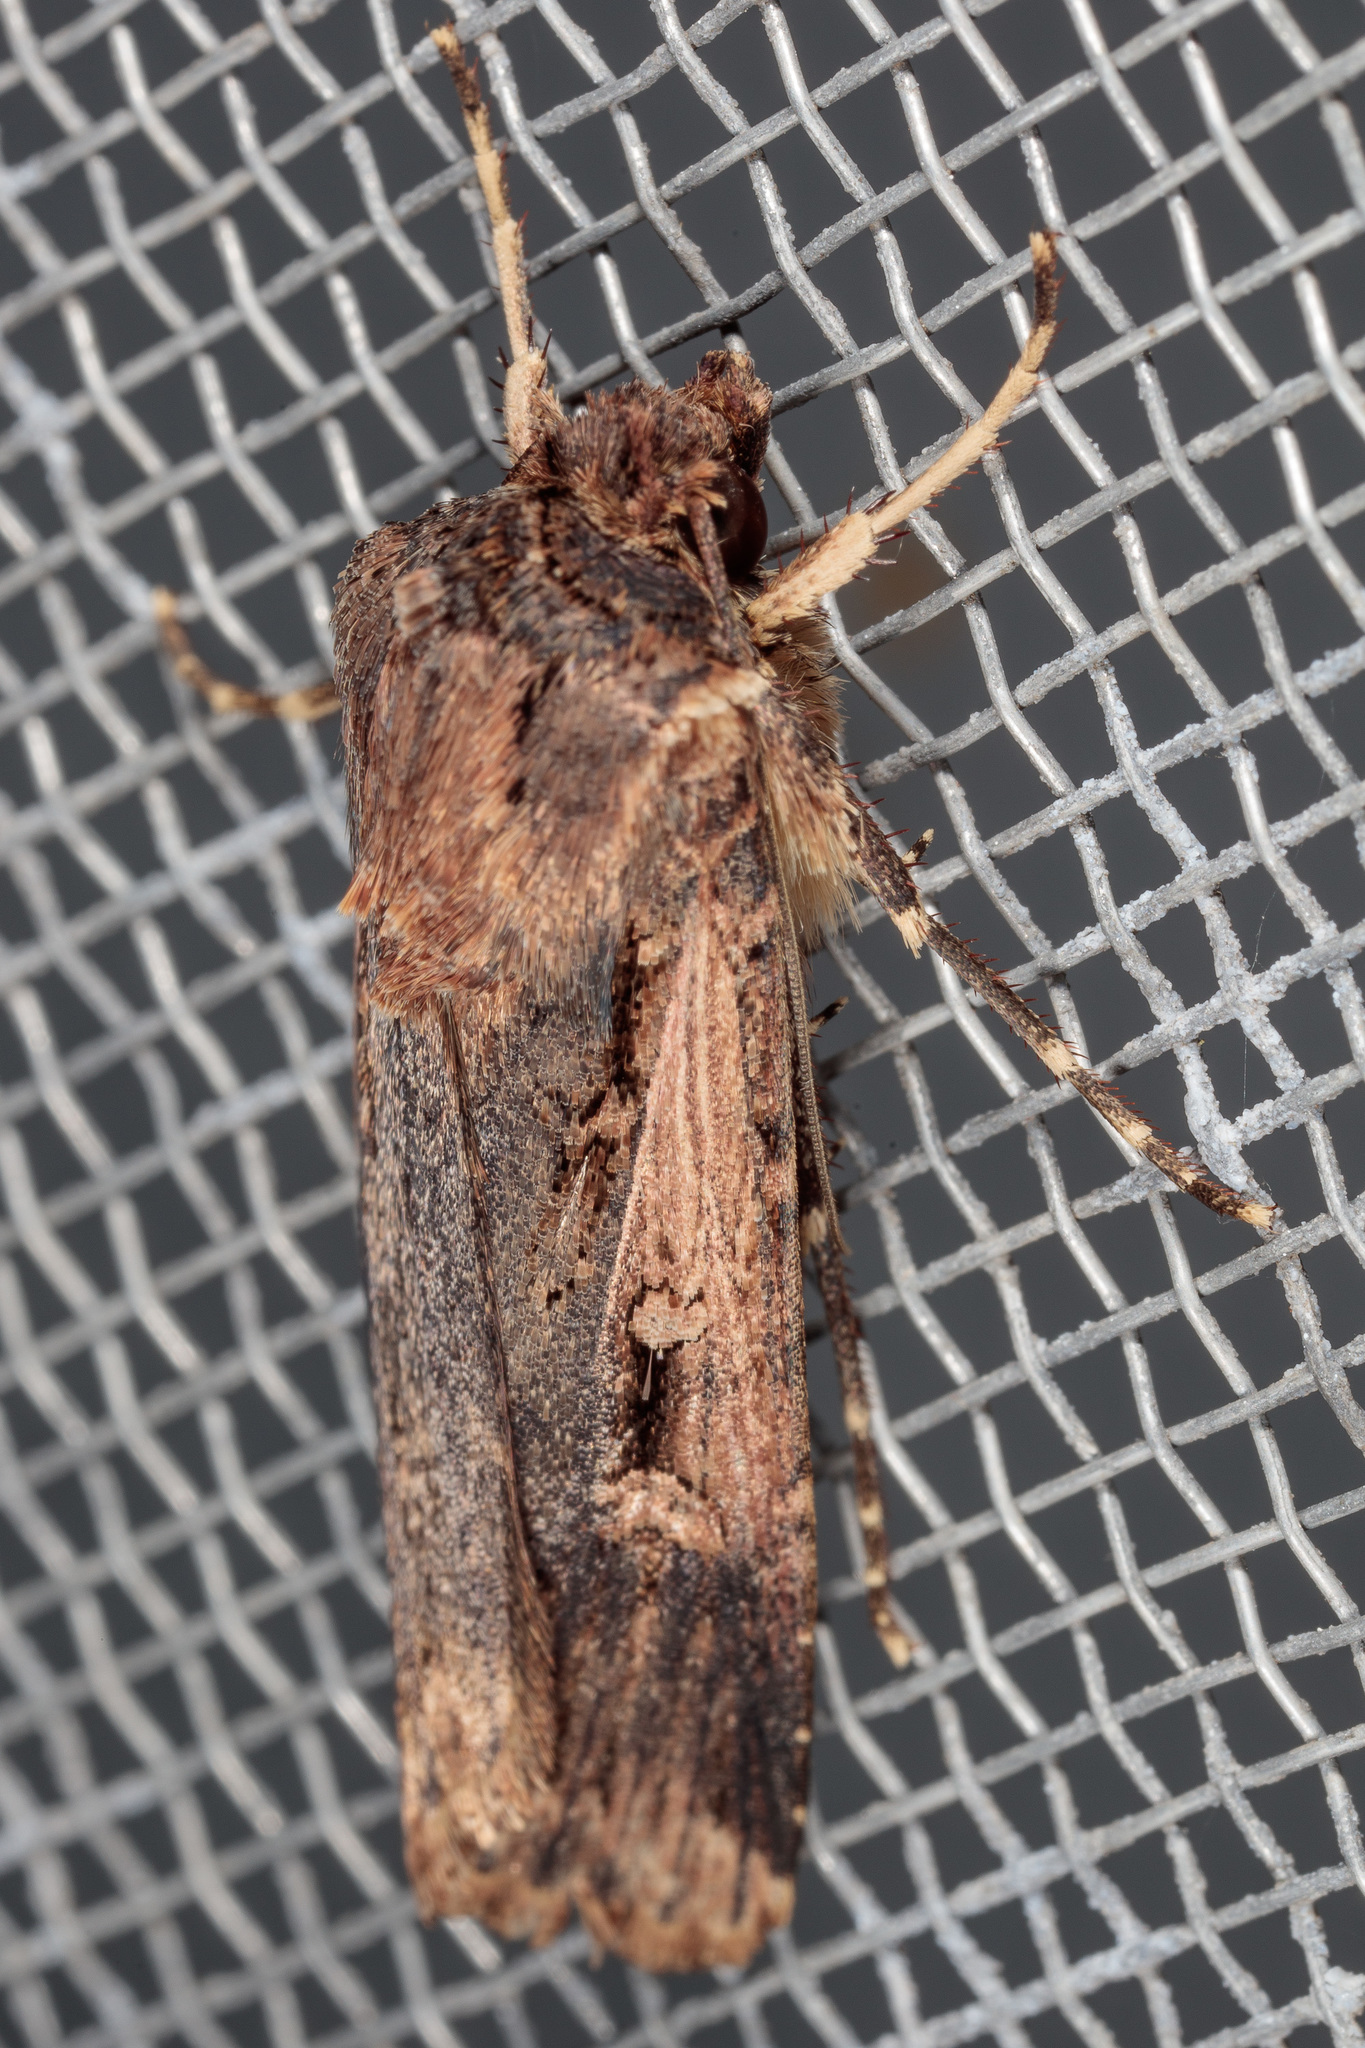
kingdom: Animalia
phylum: Arthropoda
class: Insecta
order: Lepidoptera
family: Noctuidae
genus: Feltia
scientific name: Feltia subterranea
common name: Granulate cutworm
